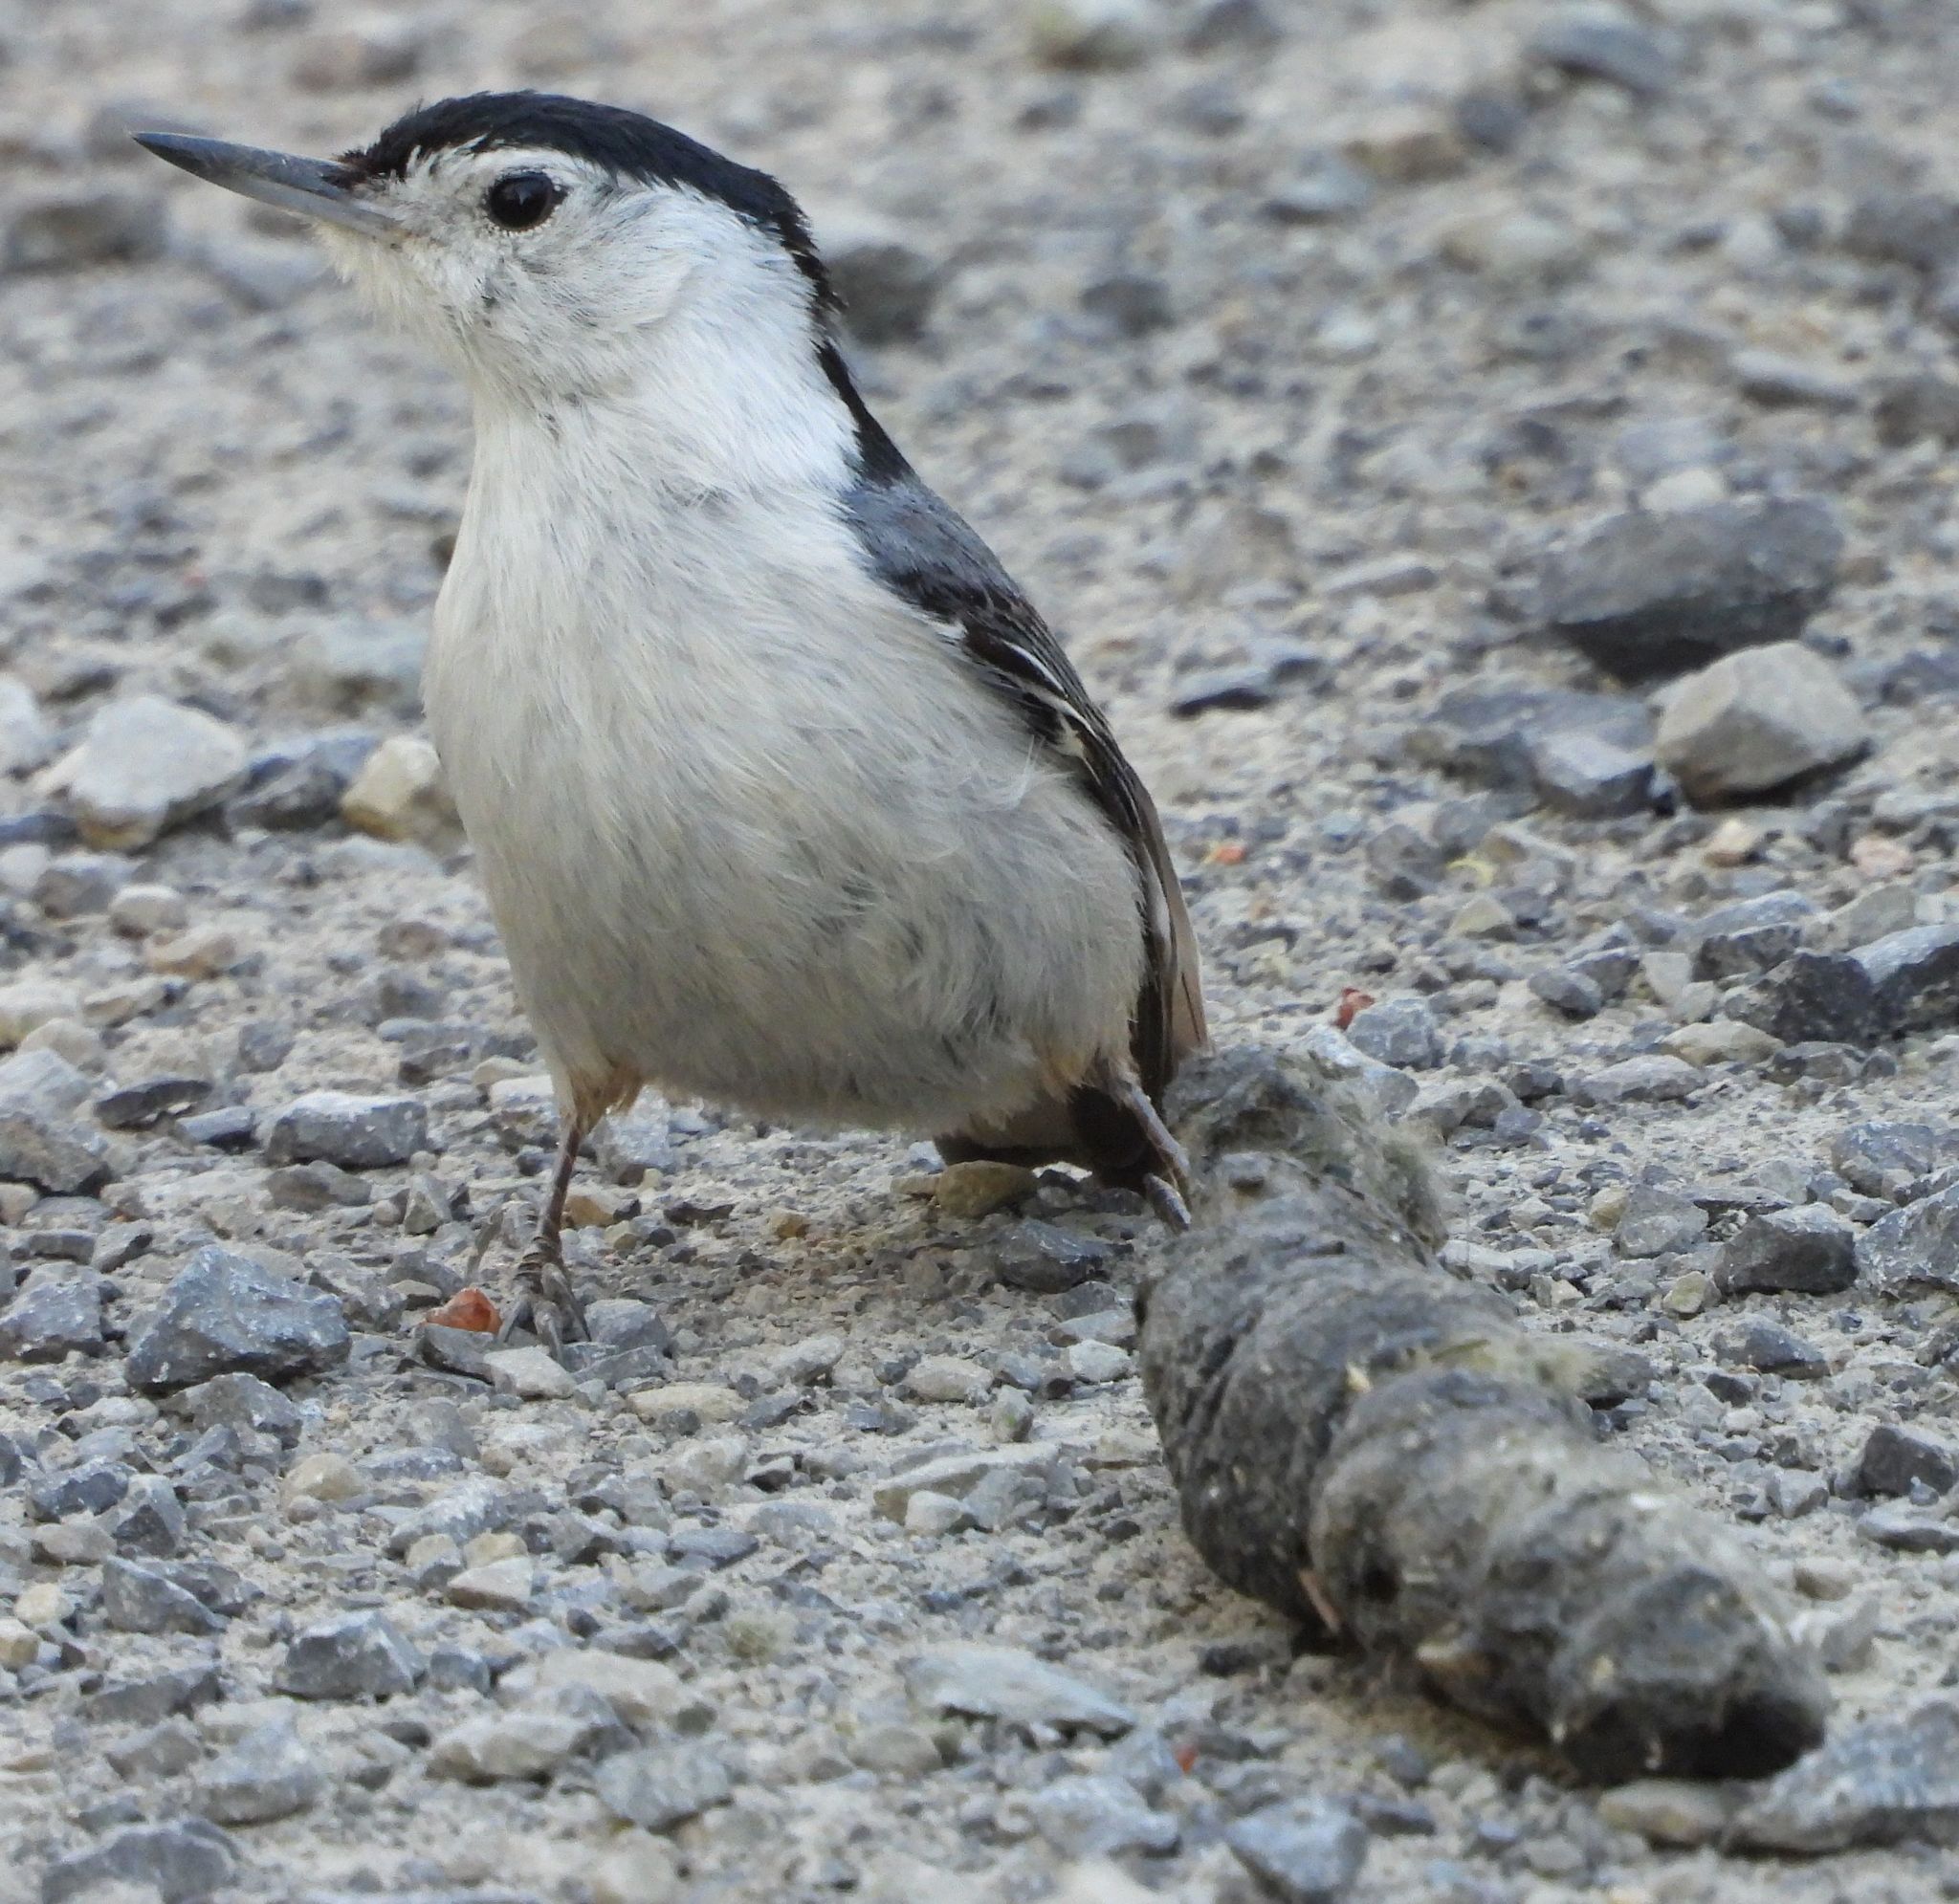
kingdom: Animalia
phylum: Chordata
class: Aves
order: Passeriformes
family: Sittidae
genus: Sitta
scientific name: Sitta carolinensis
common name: White-breasted nuthatch
